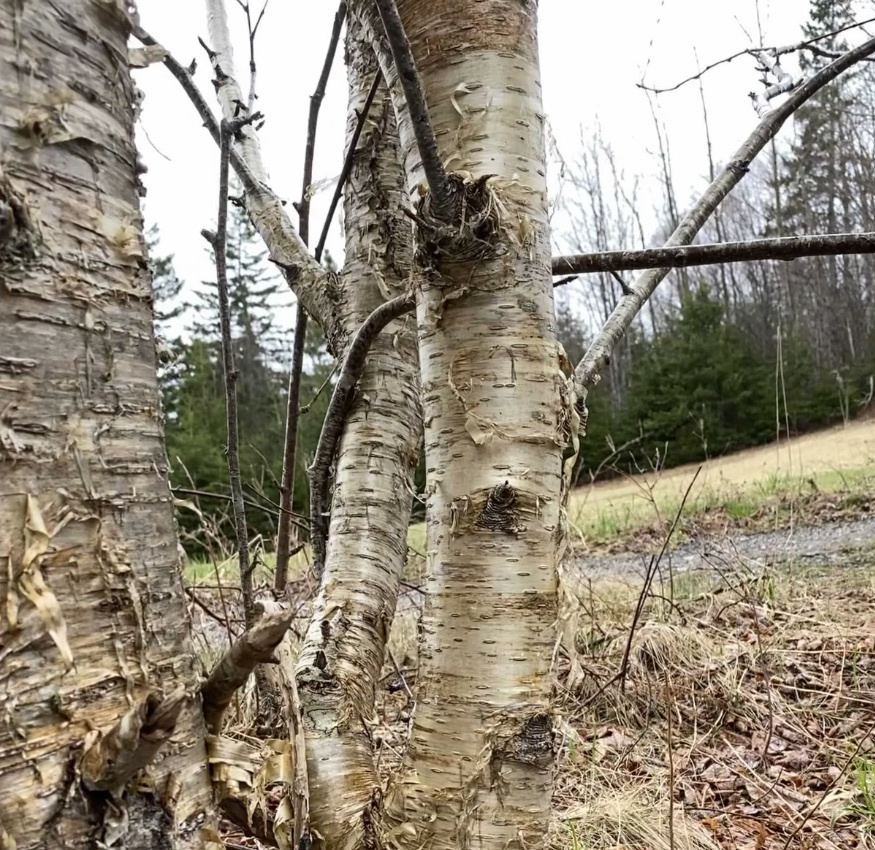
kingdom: Plantae
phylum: Tracheophyta
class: Magnoliopsida
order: Fagales
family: Betulaceae
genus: Betula
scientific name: Betula alleghaniensis
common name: Yellow birch
